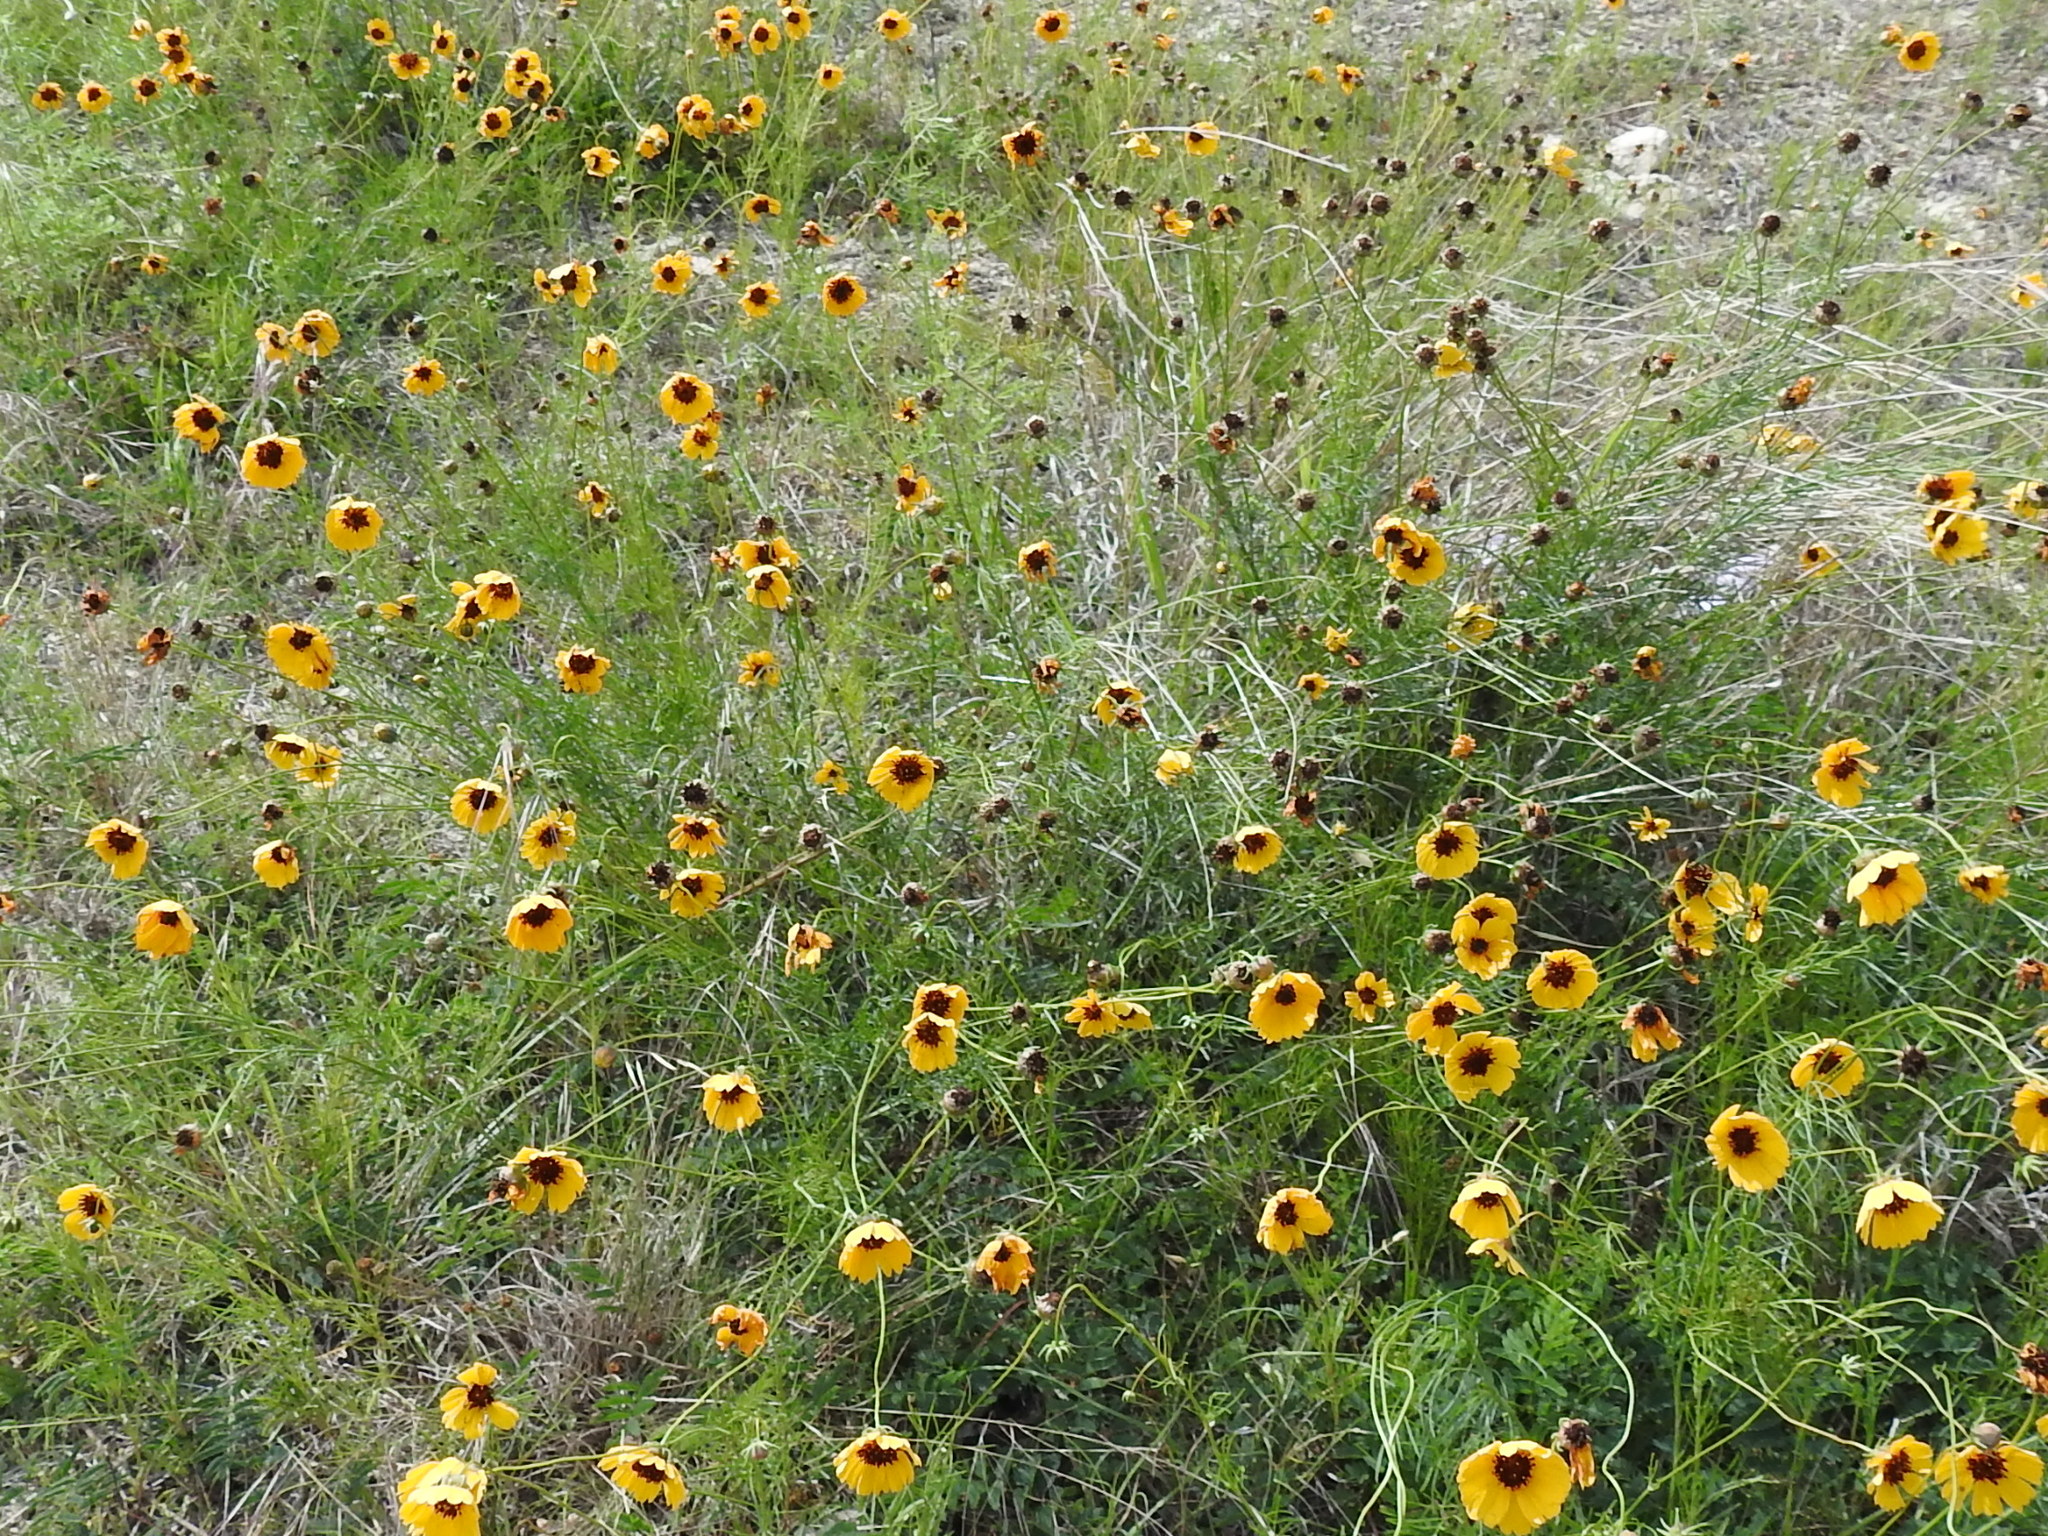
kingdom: Plantae
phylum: Tracheophyta
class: Magnoliopsida
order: Asterales
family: Asteraceae
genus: Thelesperma
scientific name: Thelesperma filifolium
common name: Stiff greenthread
